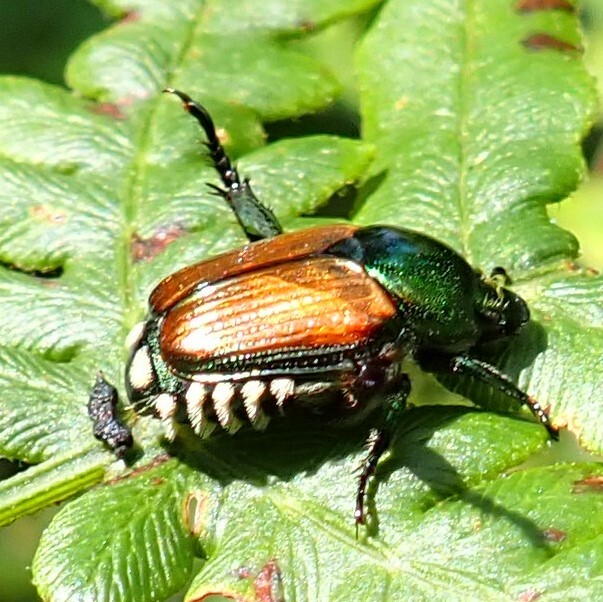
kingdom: Animalia
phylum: Arthropoda
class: Insecta
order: Coleoptera
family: Scarabaeidae
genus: Popillia
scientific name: Popillia japonica
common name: Japanese beetle
